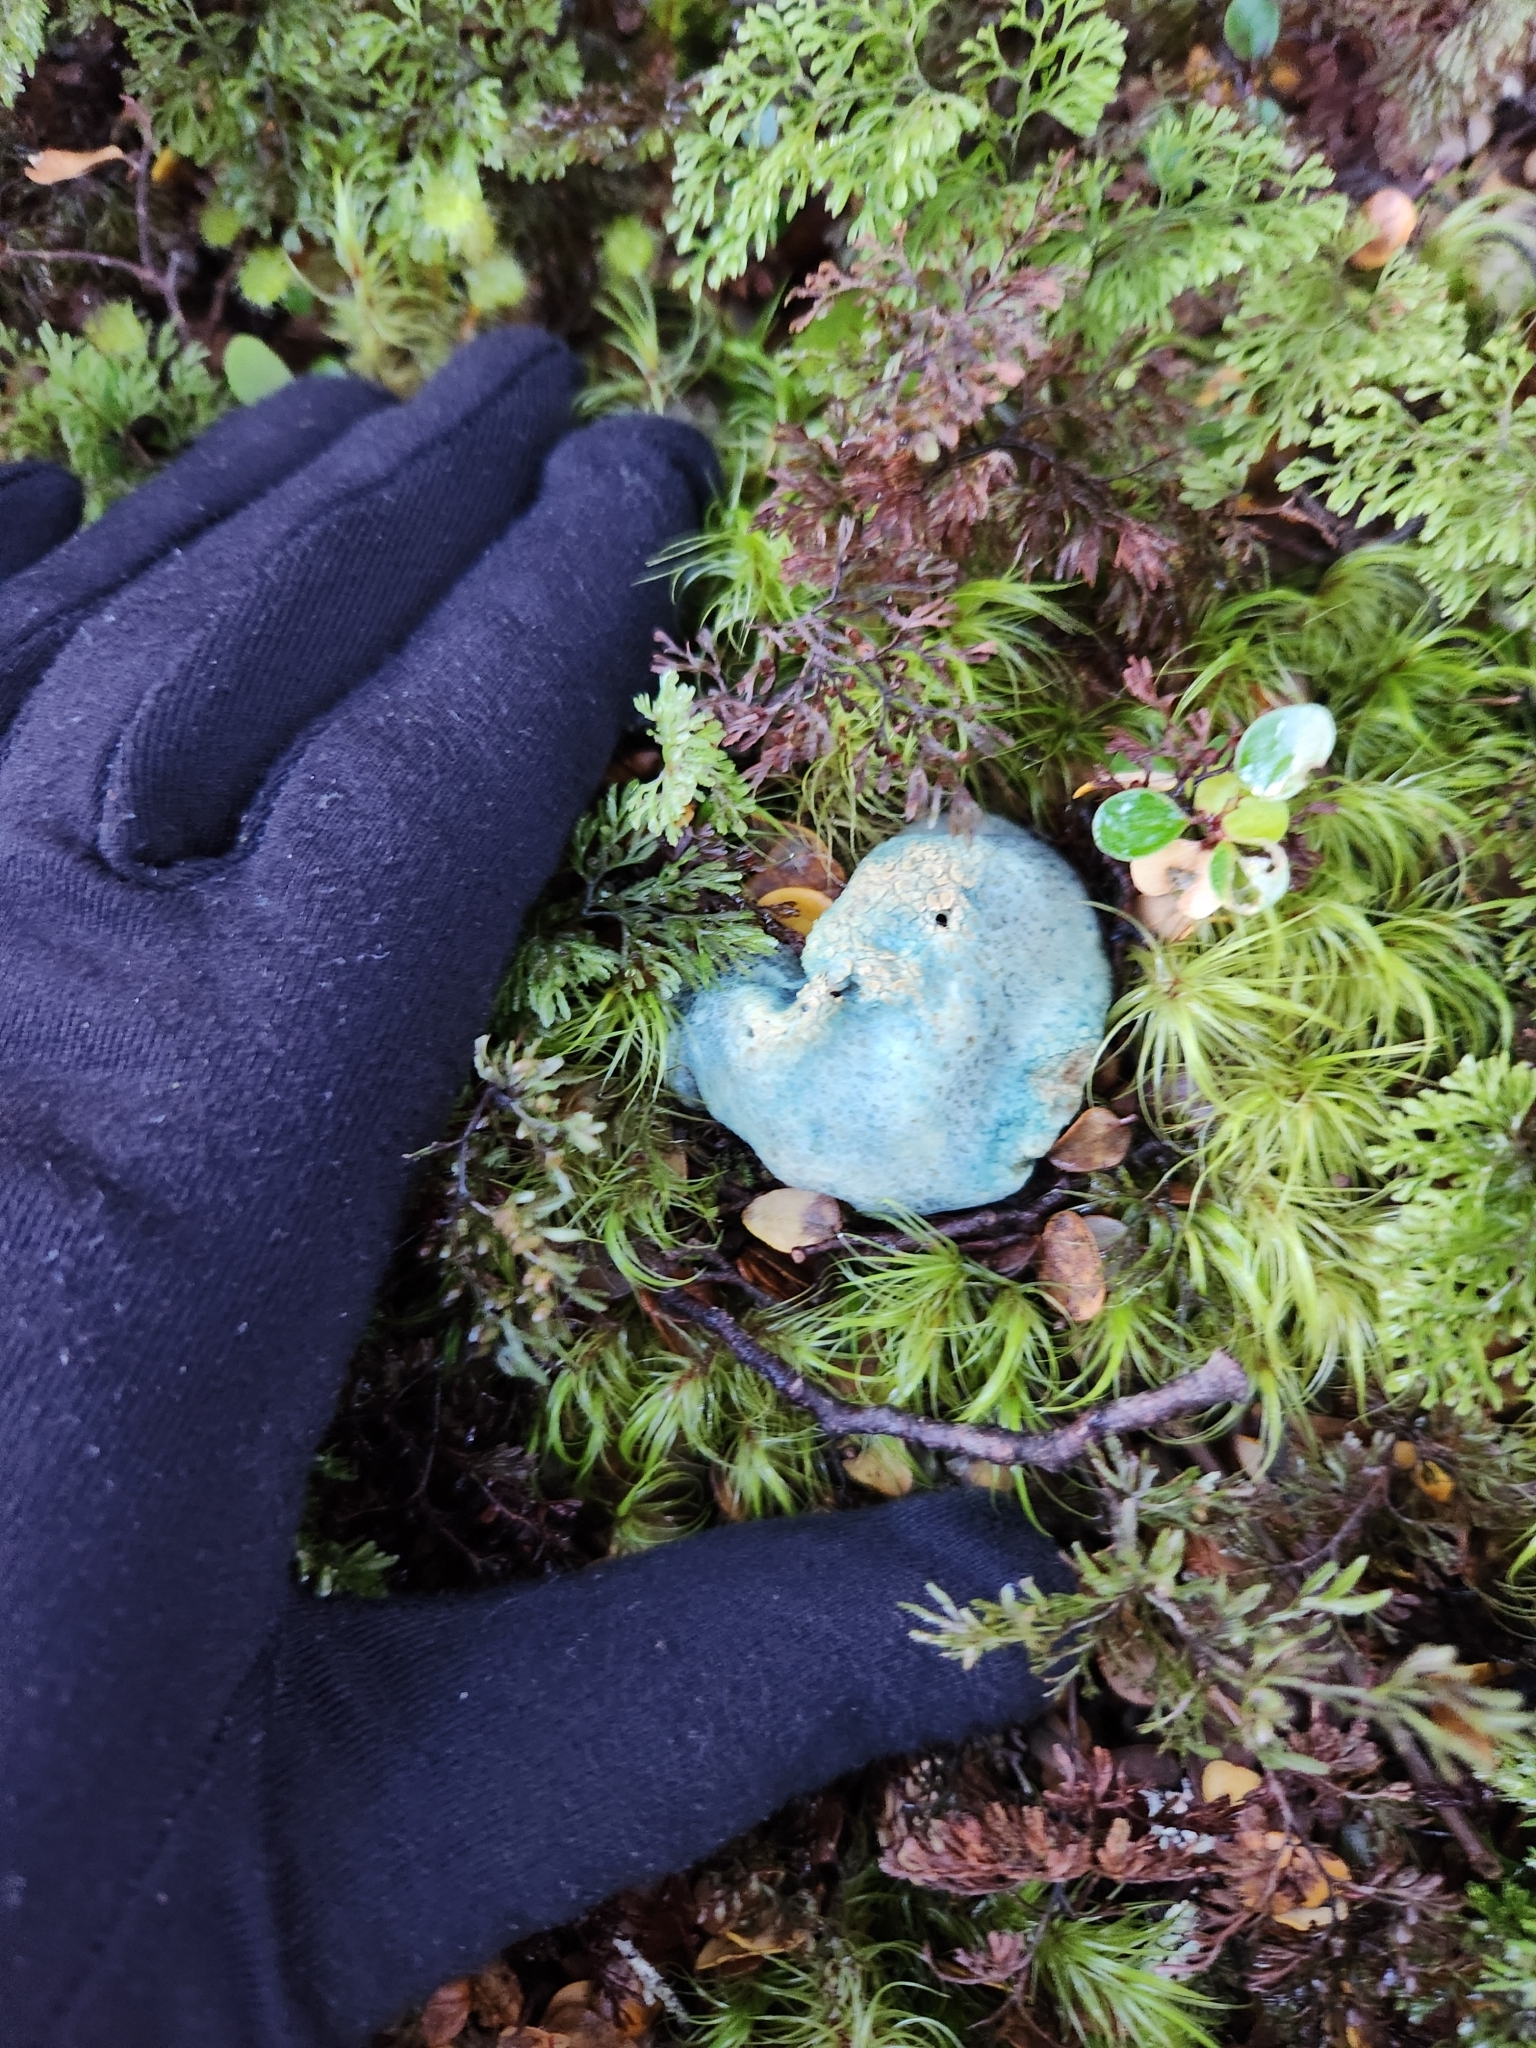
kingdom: Fungi
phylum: Basidiomycota
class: Agaricomycetes
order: Boletales
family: Boletaceae
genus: Leccinum
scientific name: Leccinum pachyderme
